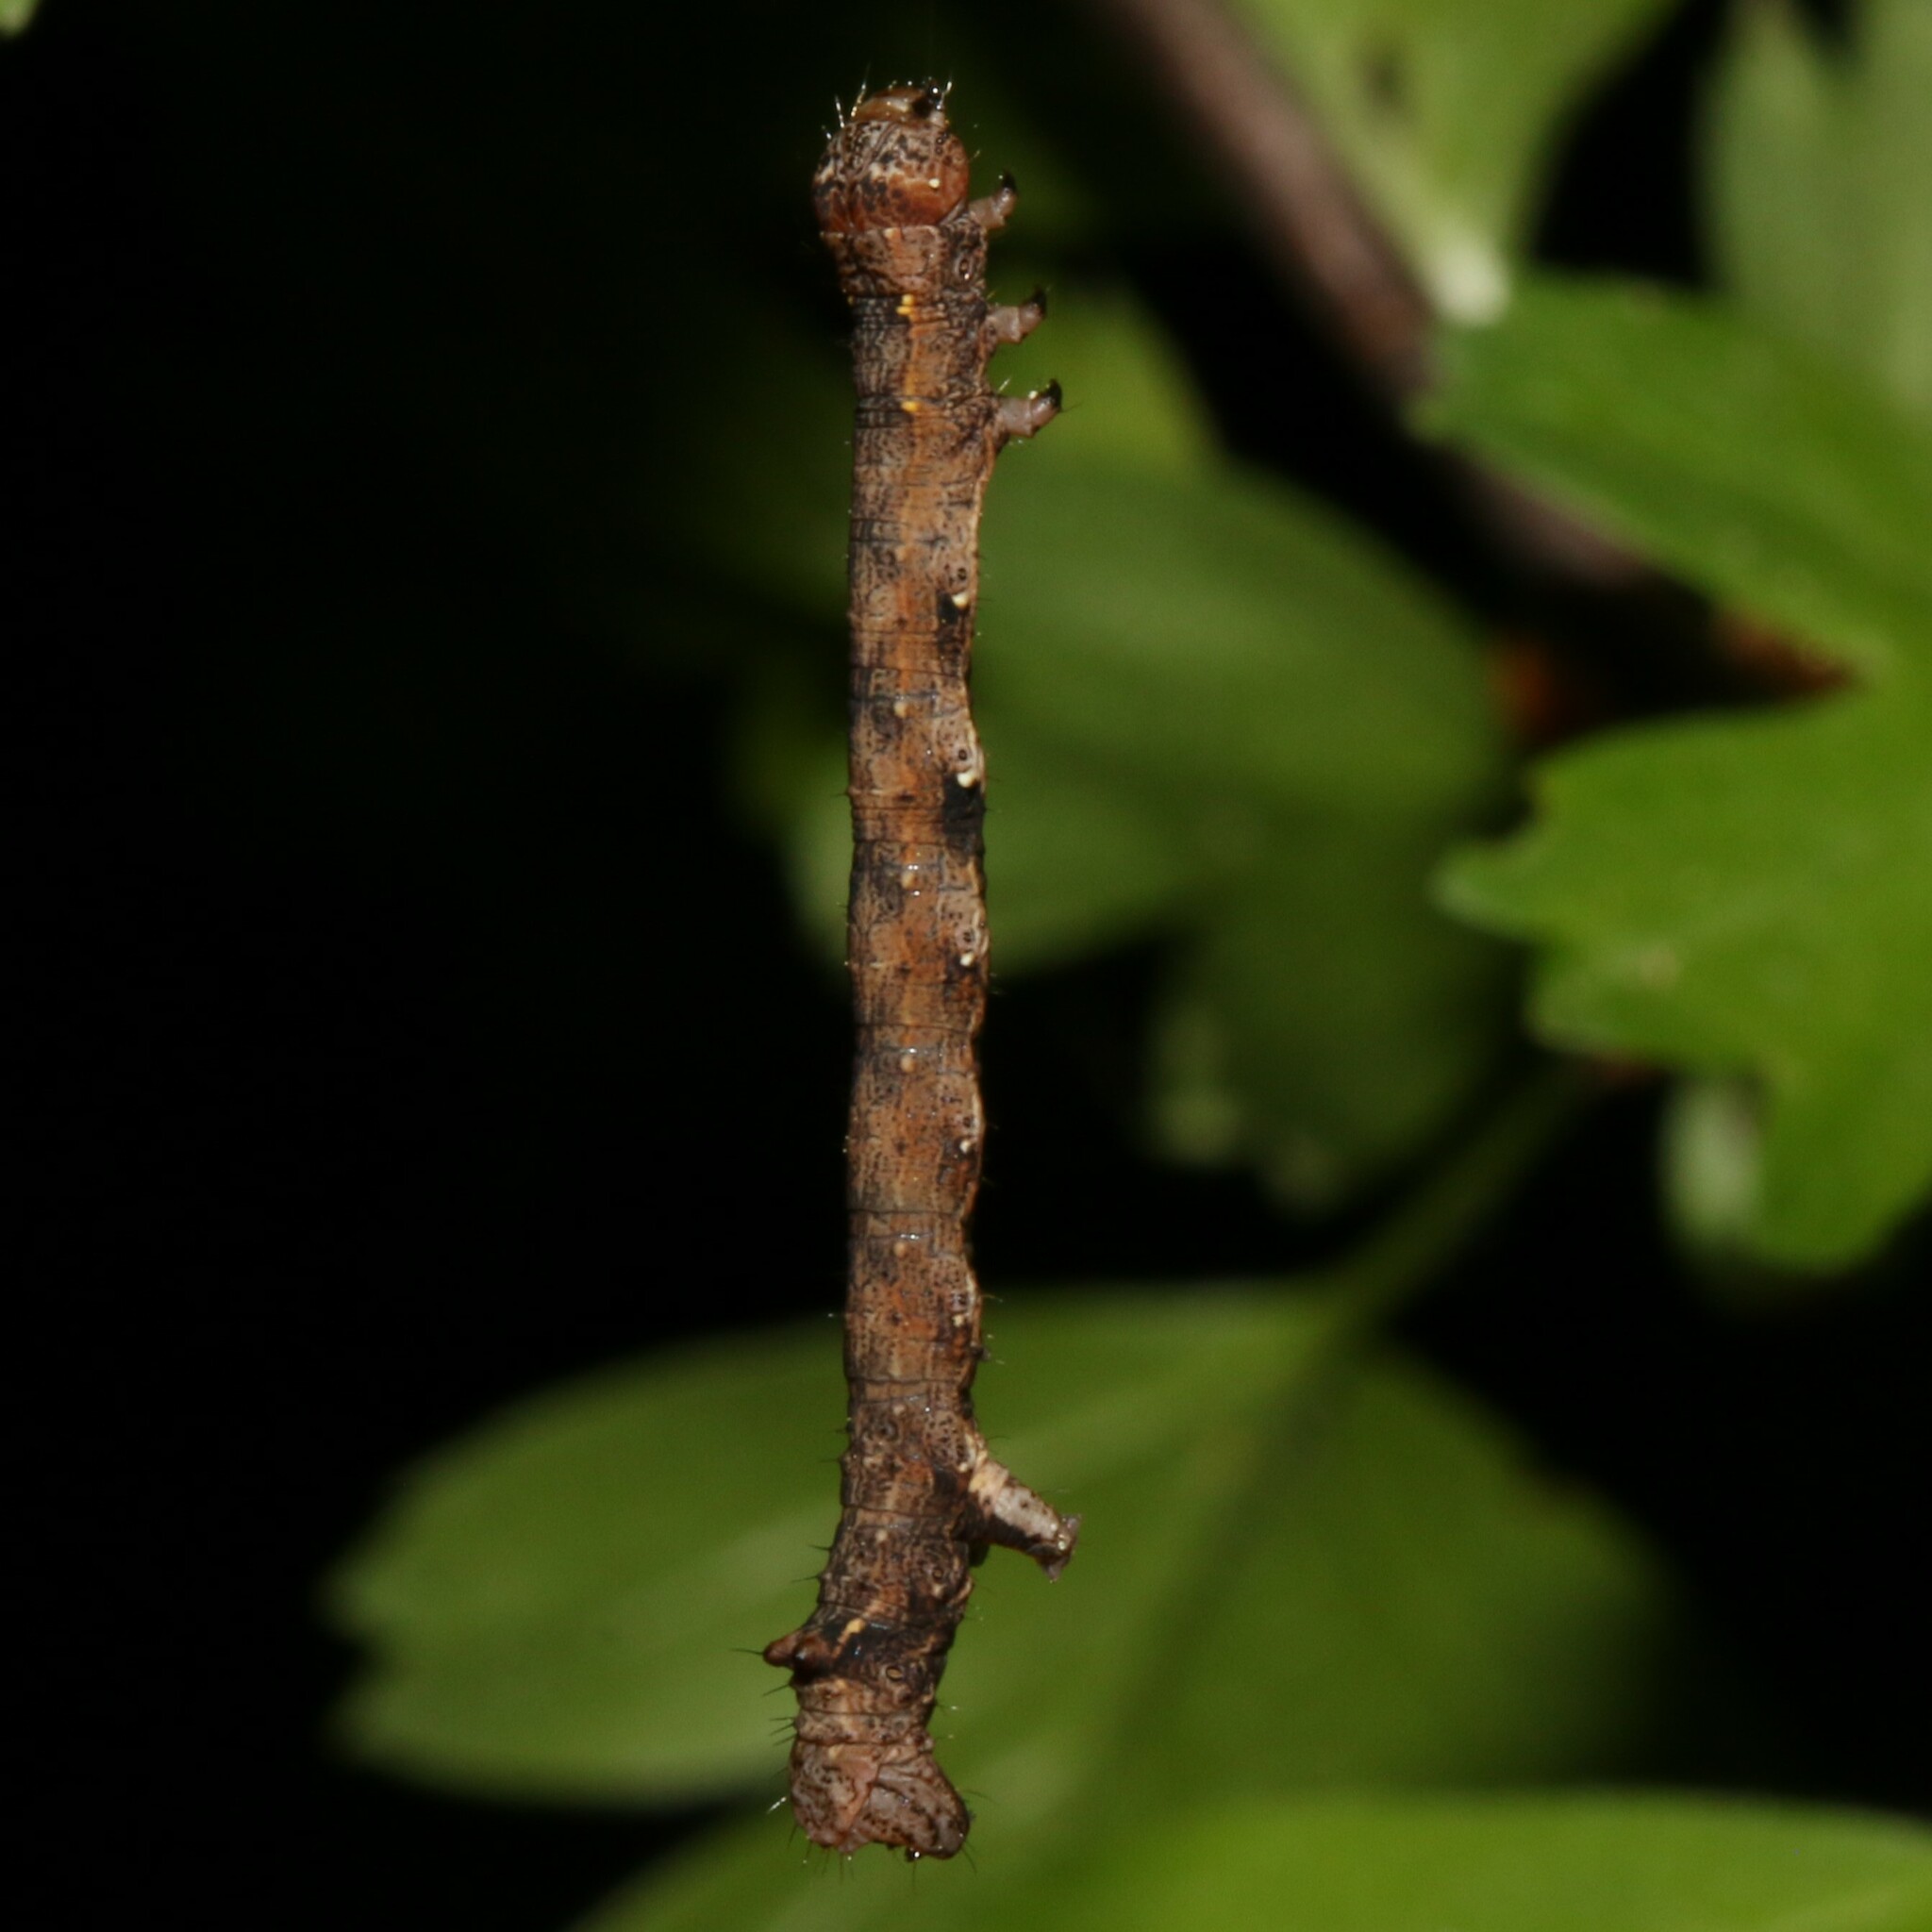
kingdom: Animalia
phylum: Arthropoda
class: Insecta
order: Lepidoptera
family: Geometridae
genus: Colotois
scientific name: Colotois pennaria
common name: Feathered thorn
